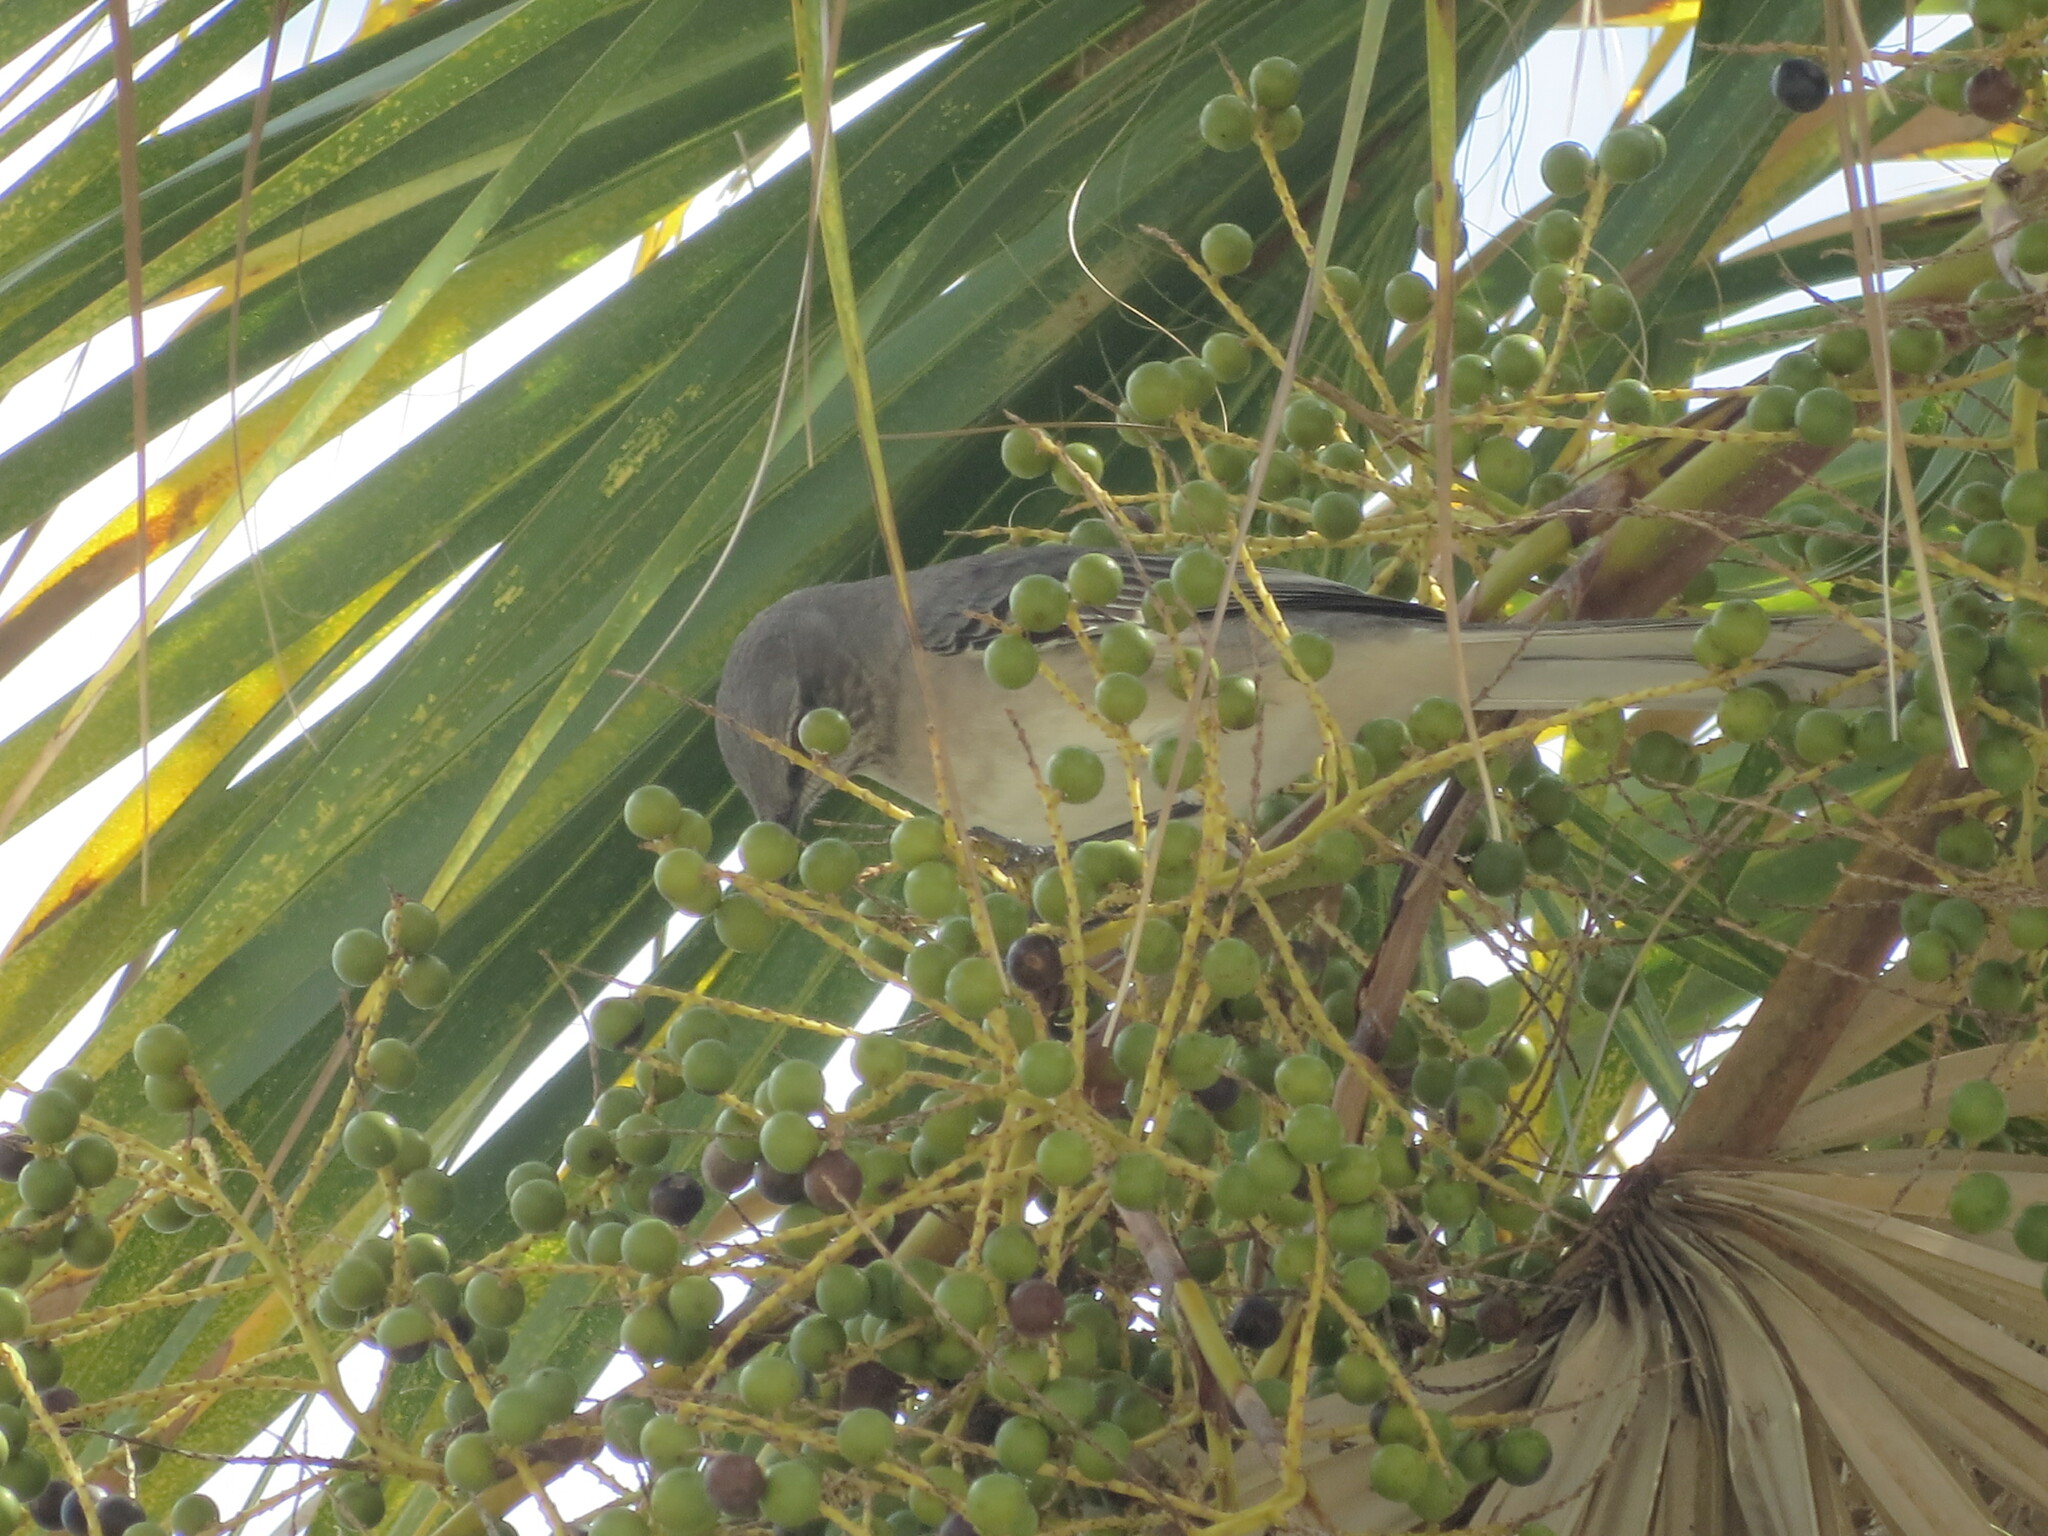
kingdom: Animalia
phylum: Chordata
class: Aves
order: Passeriformes
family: Mimidae
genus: Mimus
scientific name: Mimus polyglottos
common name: Northern mockingbird
